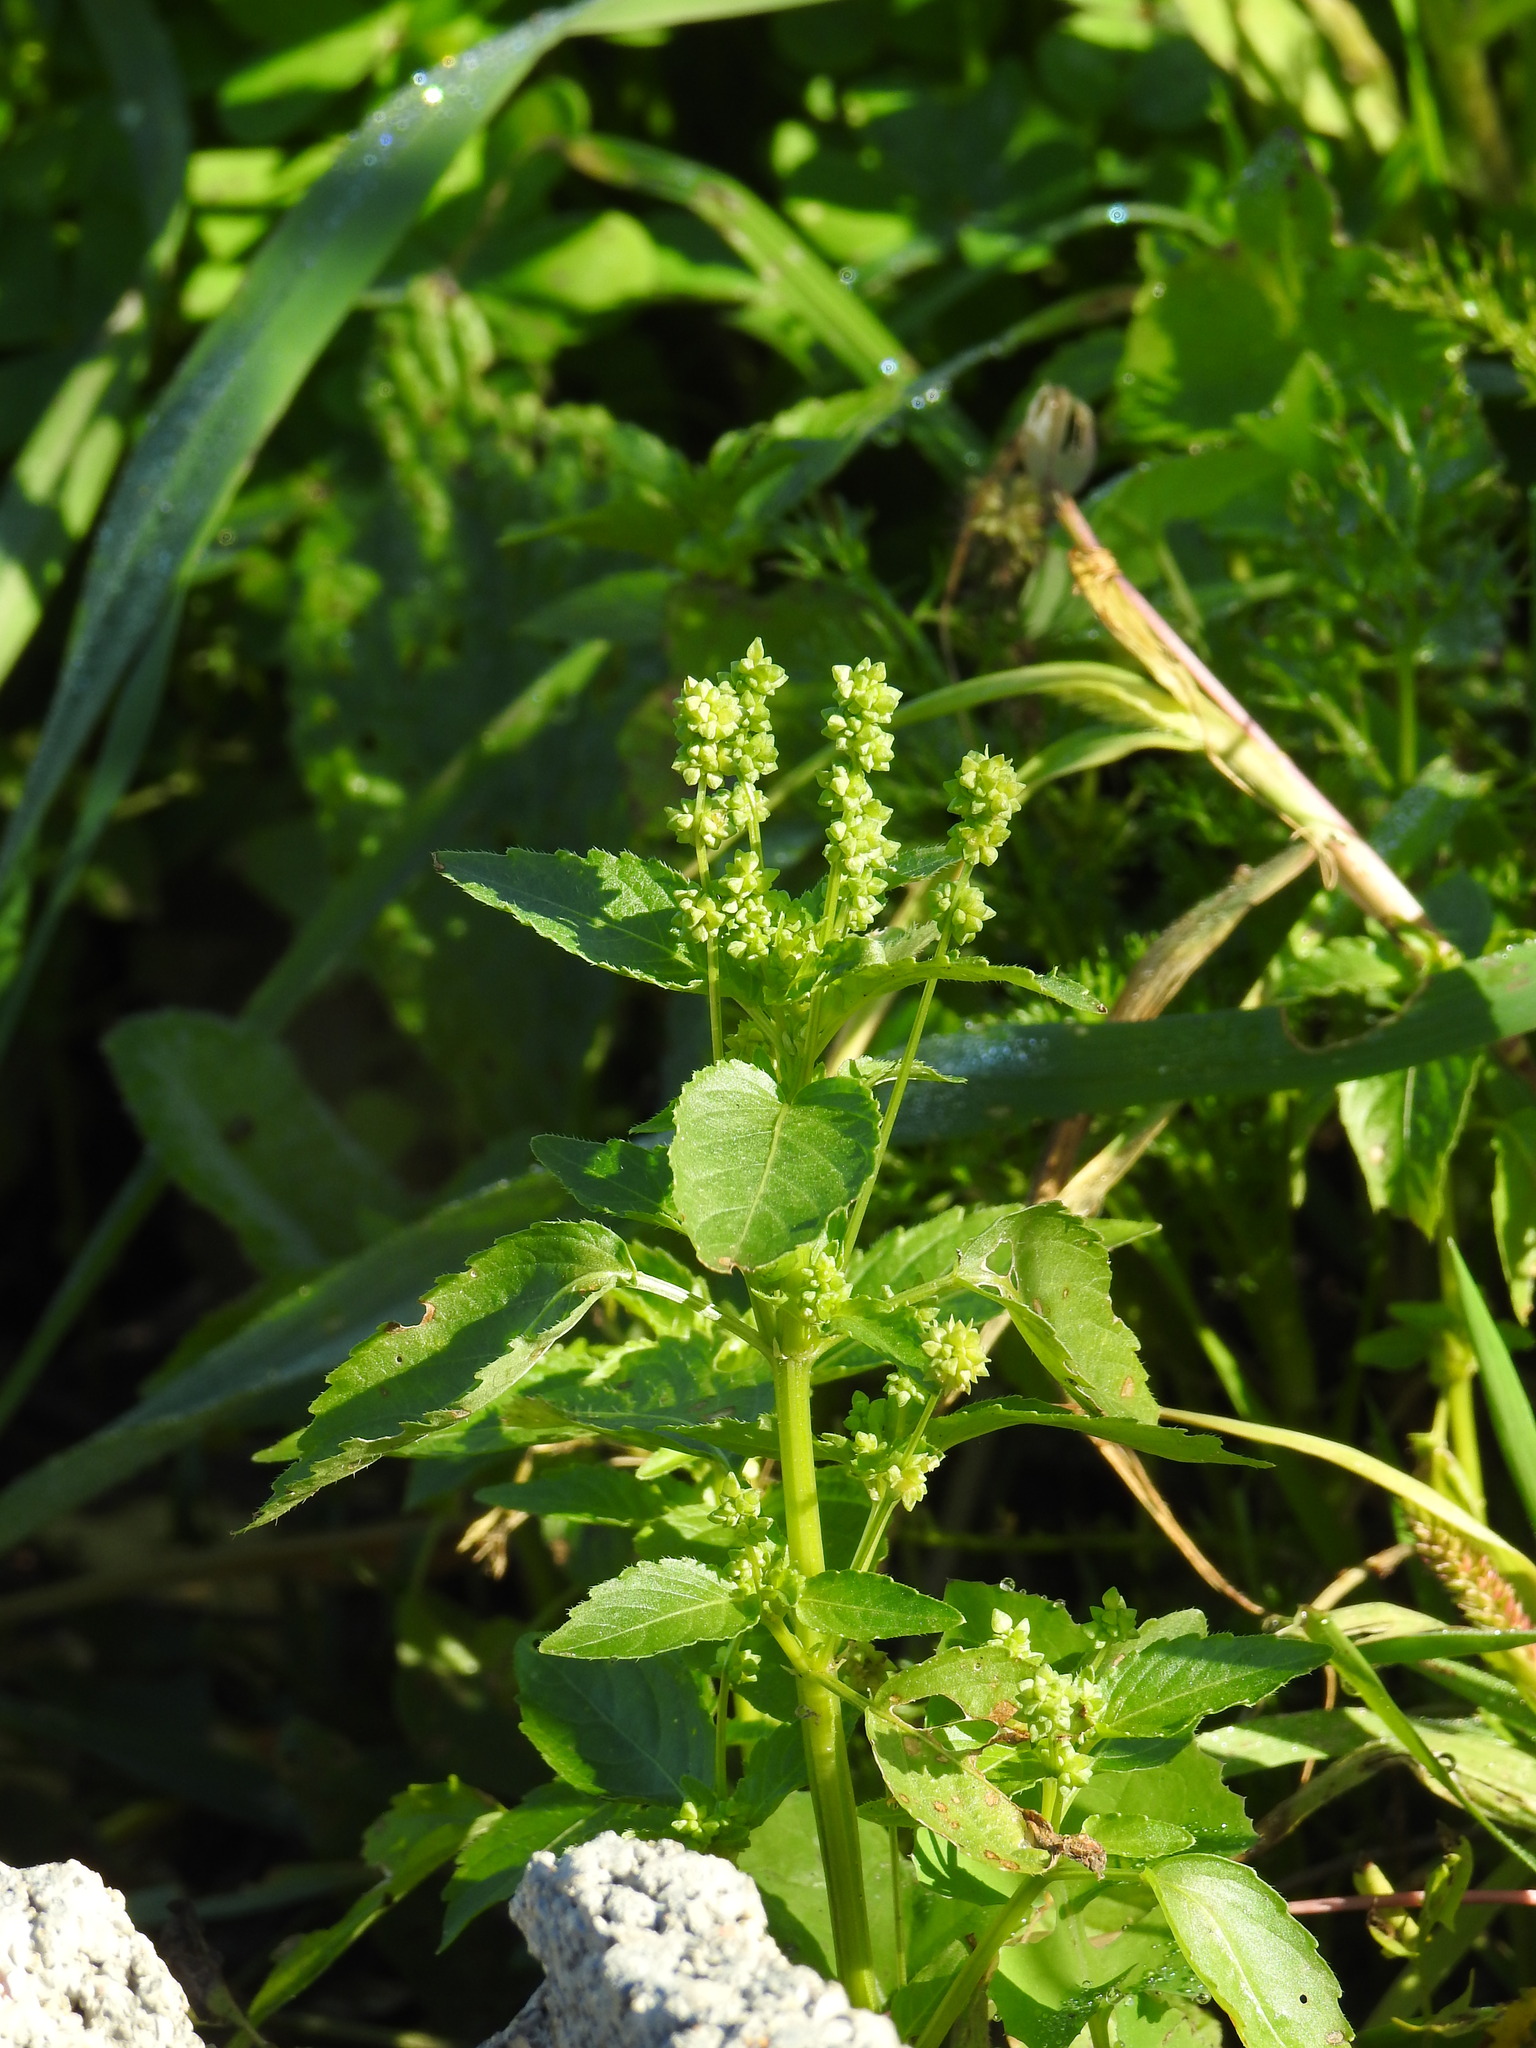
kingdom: Plantae
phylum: Tracheophyta
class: Magnoliopsida
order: Malpighiales
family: Euphorbiaceae
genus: Mercurialis
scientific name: Mercurialis annua
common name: Annual mercury
